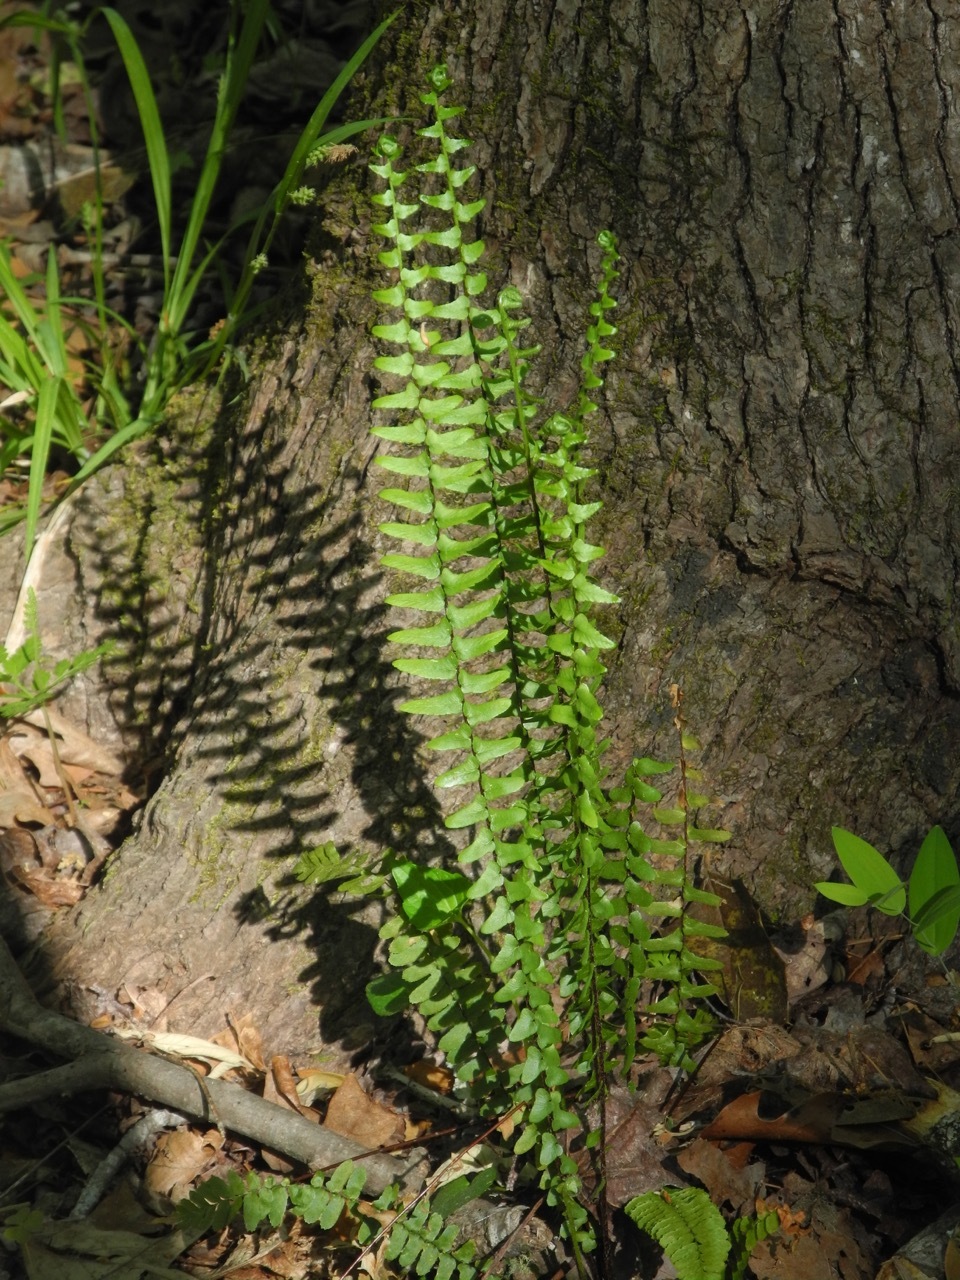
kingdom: Plantae
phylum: Tracheophyta
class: Polypodiopsida
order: Polypodiales
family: Aspleniaceae
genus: Asplenium
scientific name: Asplenium platyneuron
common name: Ebony spleenwort
